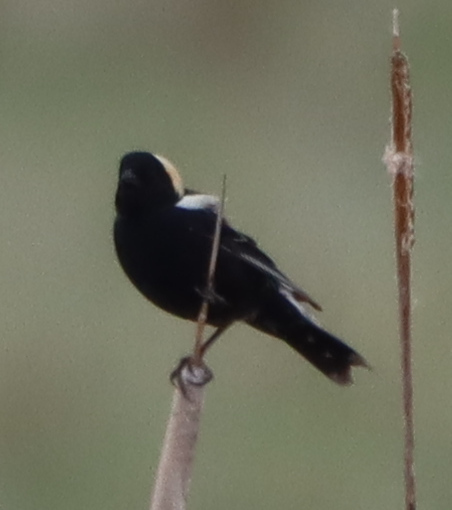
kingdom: Animalia
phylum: Chordata
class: Aves
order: Passeriformes
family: Icteridae
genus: Dolichonyx
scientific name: Dolichonyx oryzivorus
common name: Bobolink
